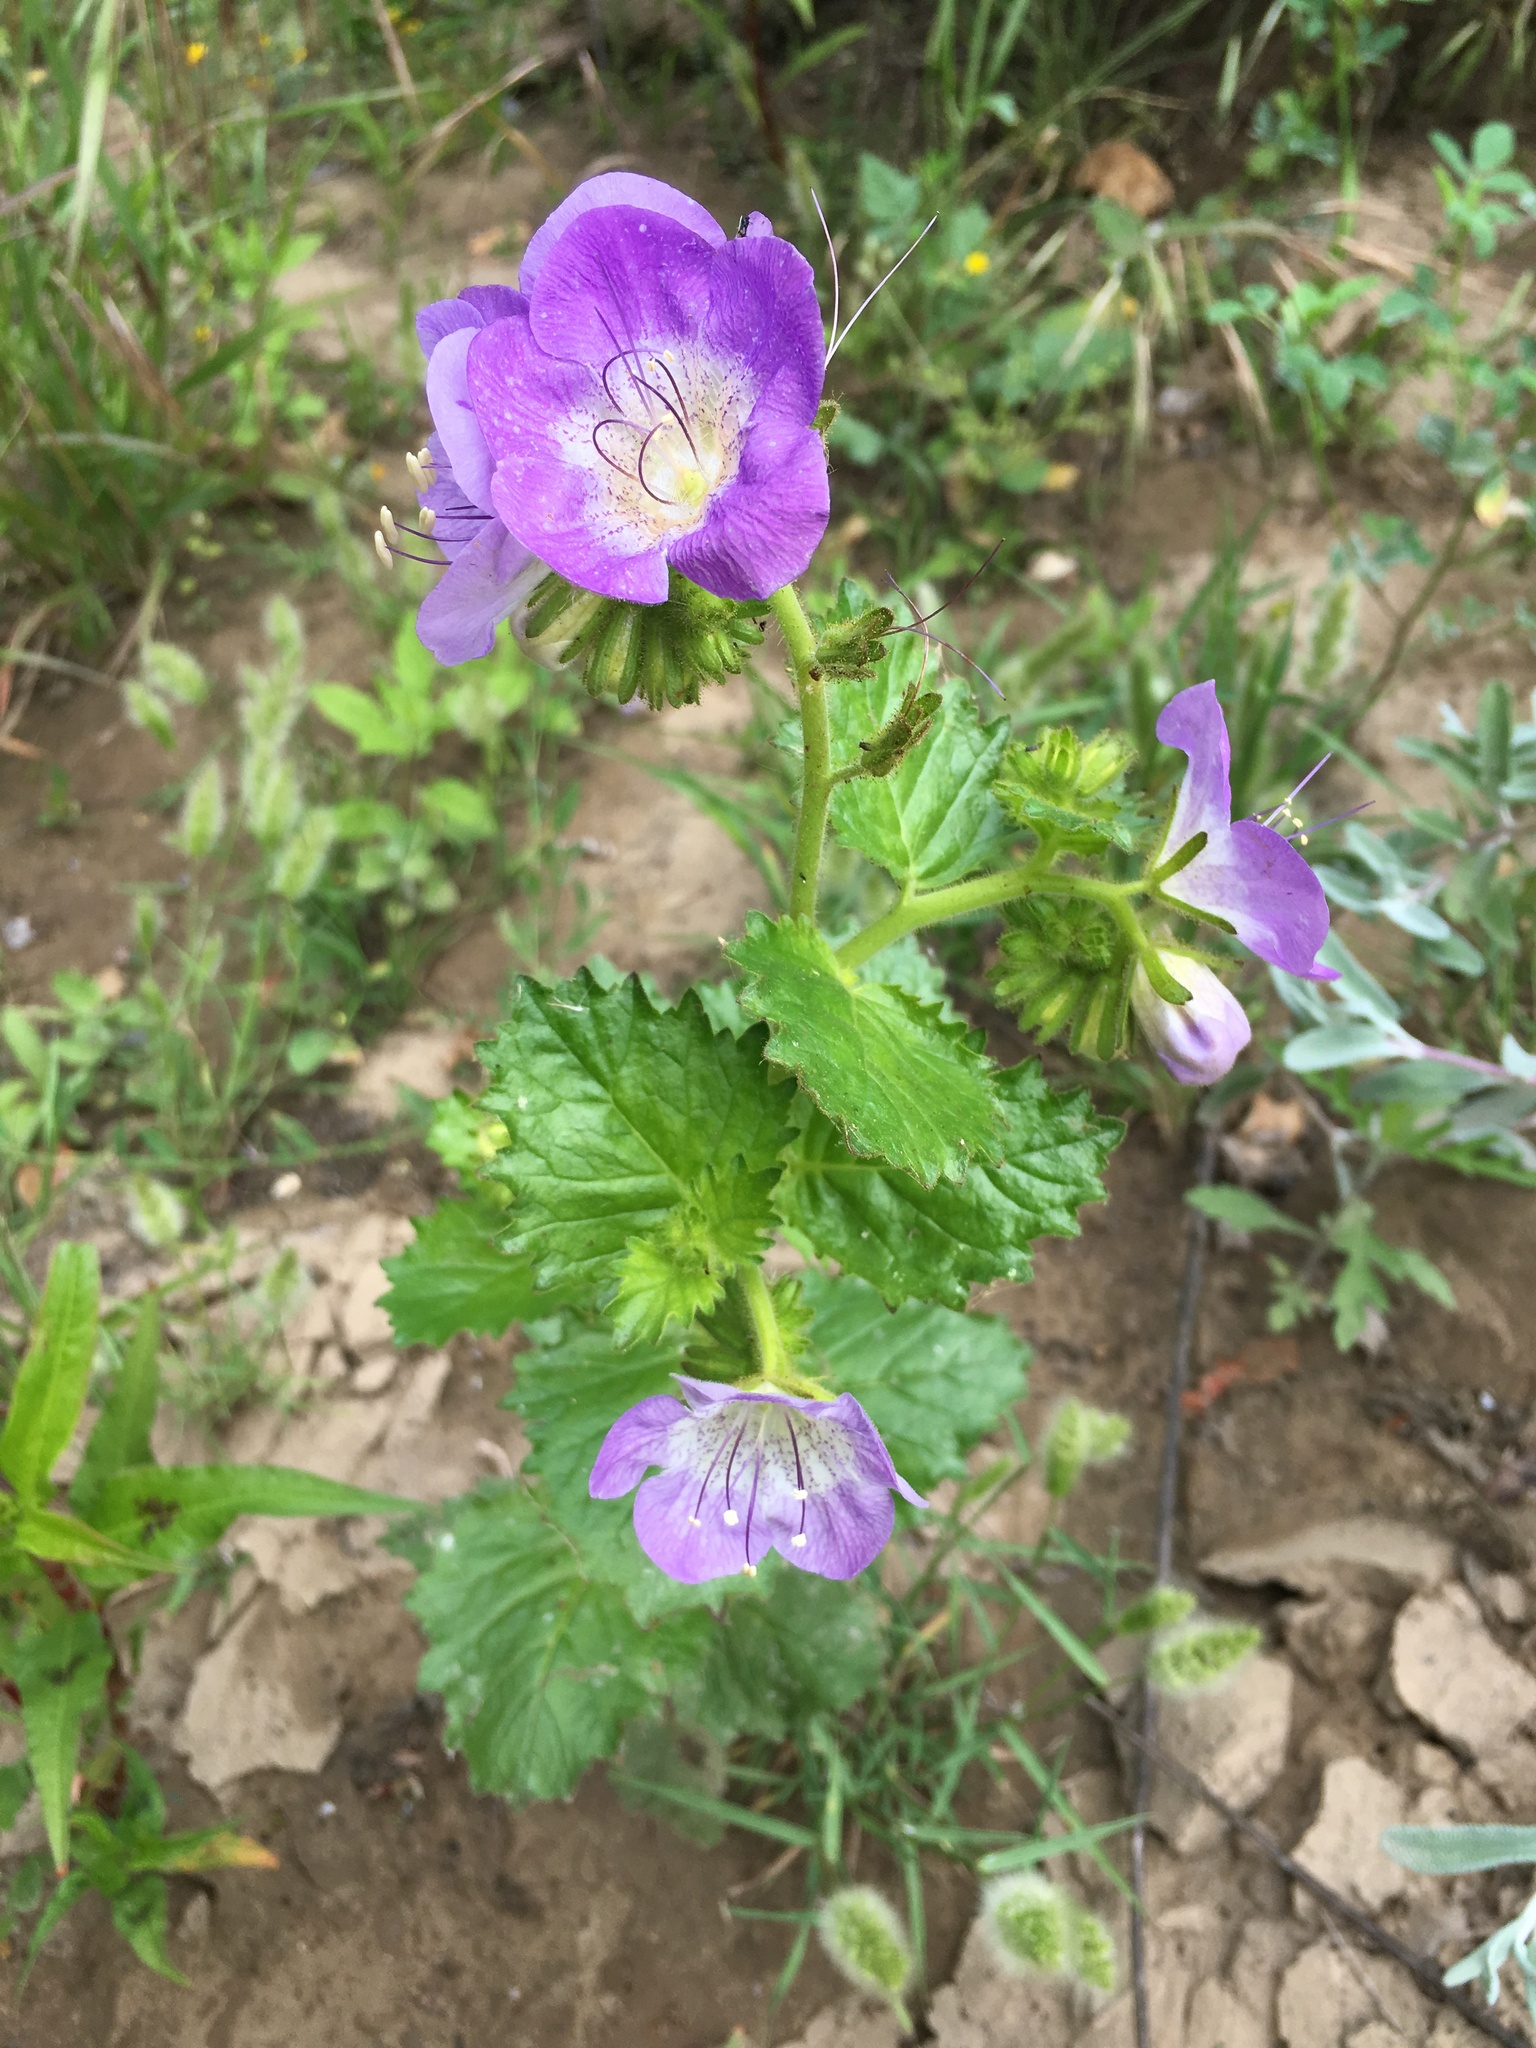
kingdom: Plantae
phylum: Tracheophyta
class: Magnoliopsida
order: Boraginales
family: Hydrophyllaceae
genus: Phacelia
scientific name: Phacelia grandiflora
